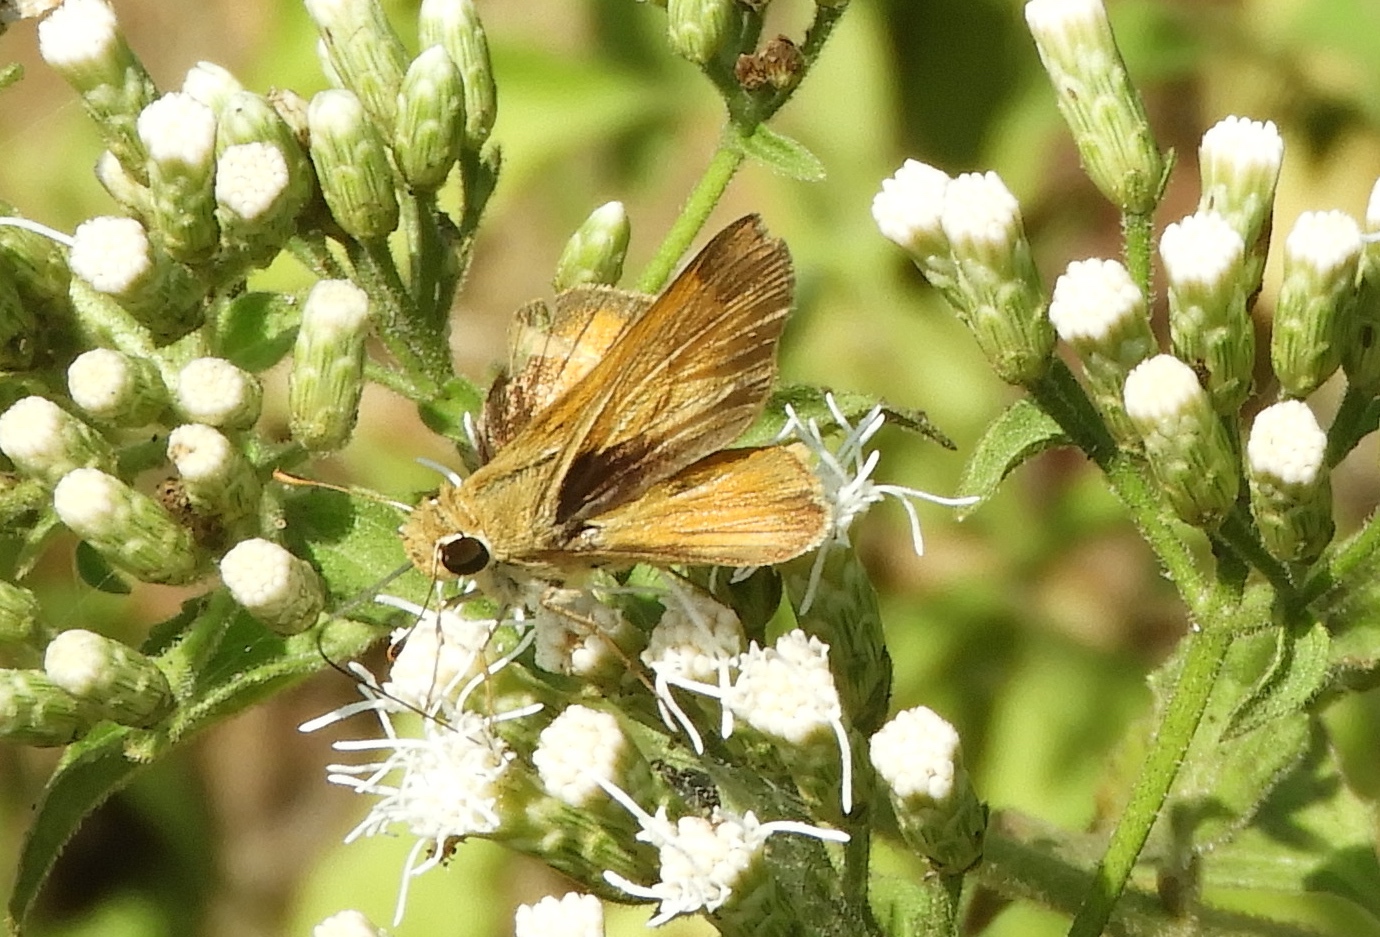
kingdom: Animalia
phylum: Arthropoda
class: Insecta
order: Lepidoptera
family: Hesperiidae
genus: Polites
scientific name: Polites vibex
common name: Whirlabout
